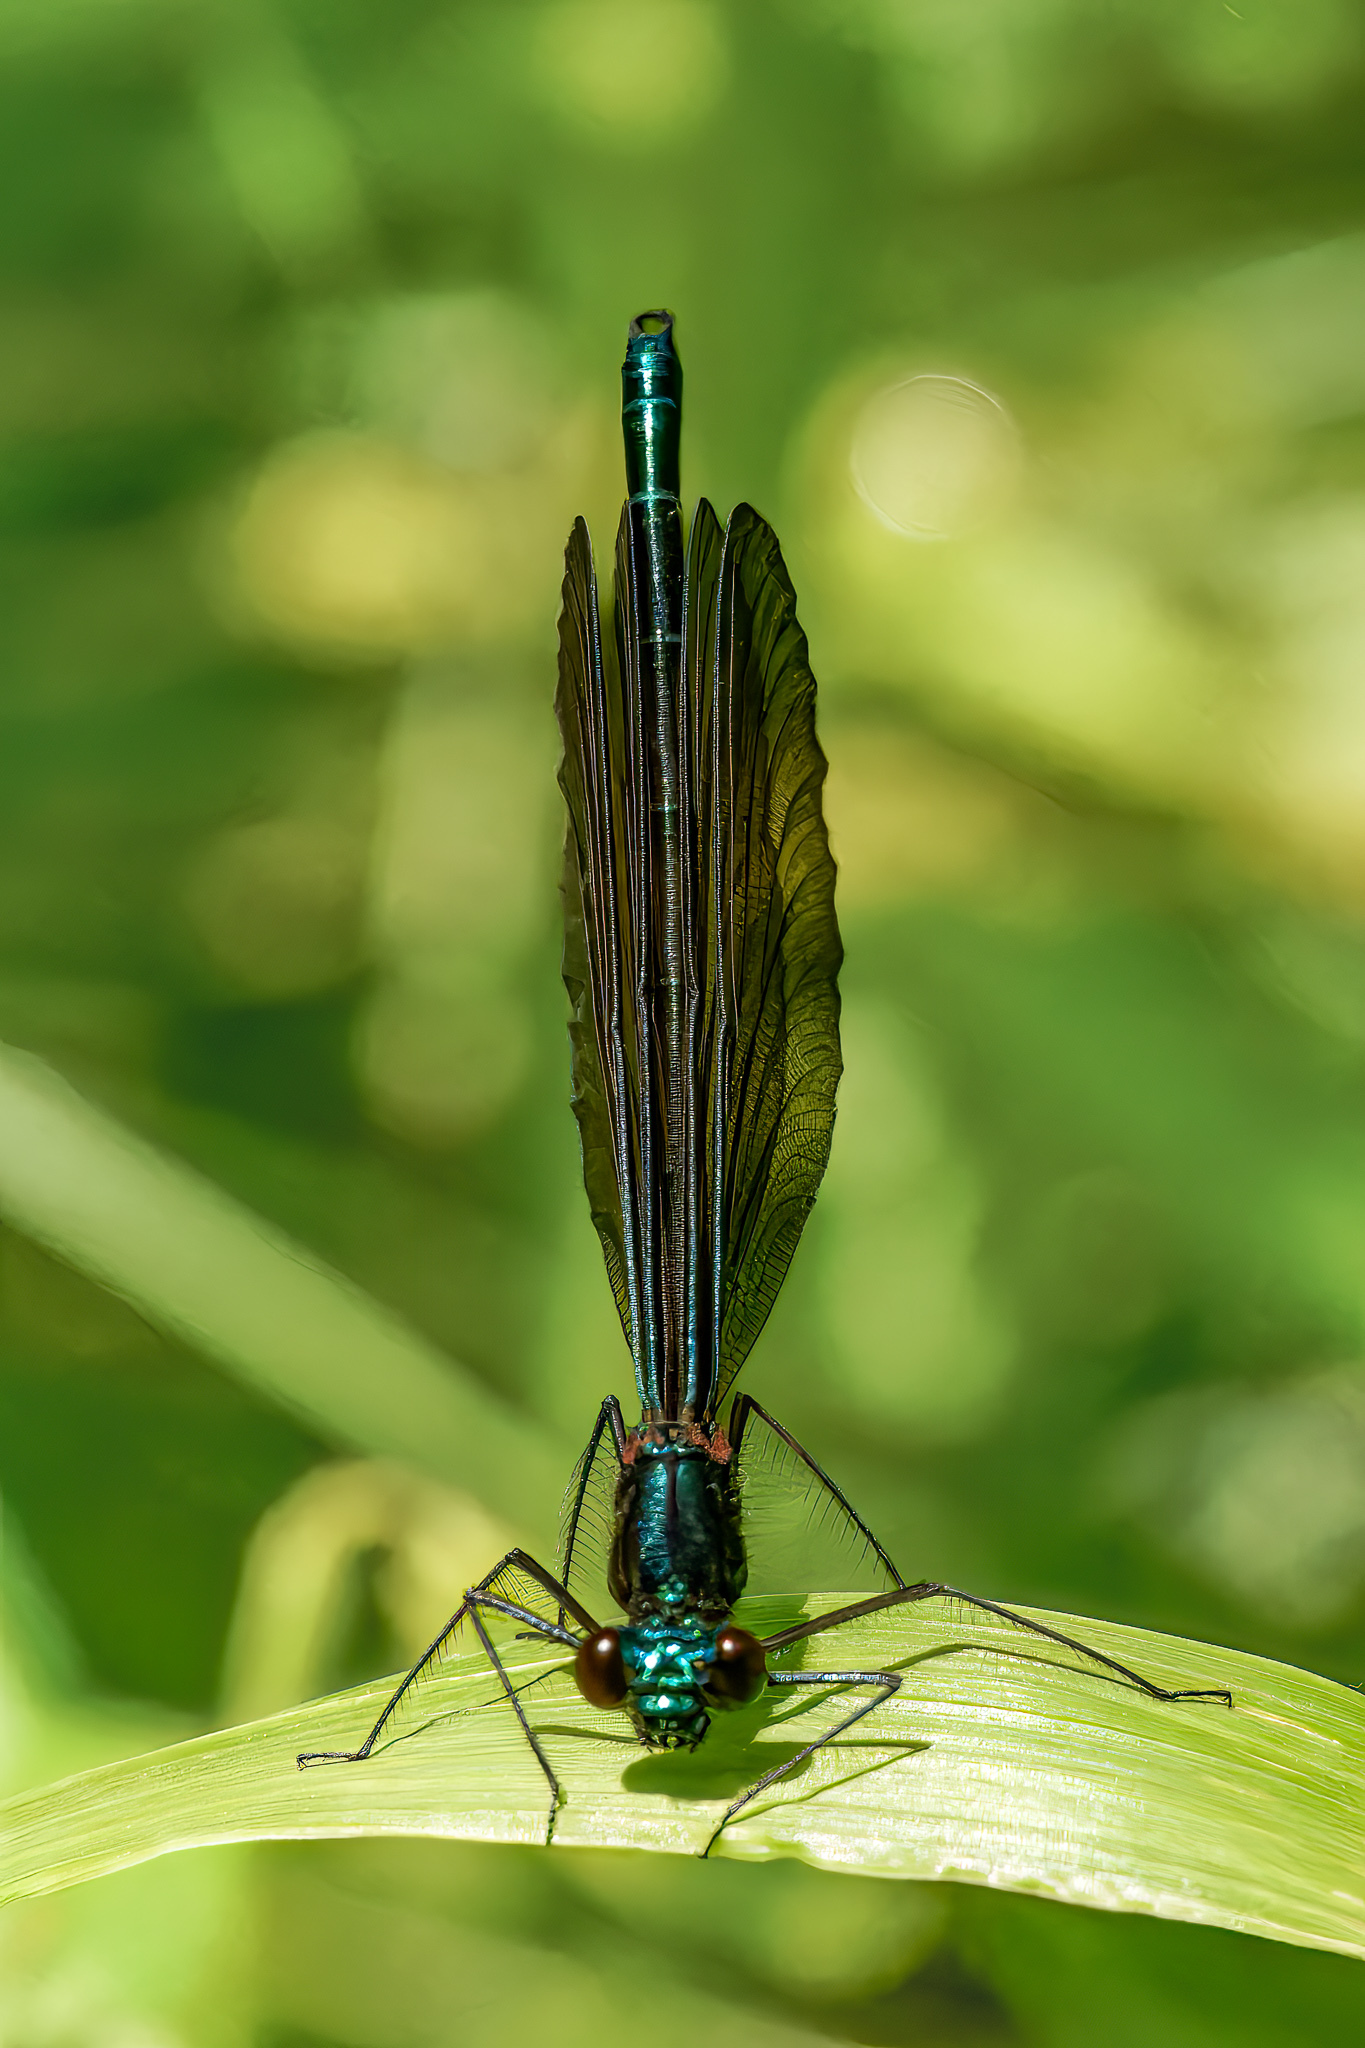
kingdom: Animalia
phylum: Arthropoda
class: Insecta
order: Odonata
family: Calopterygidae
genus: Calopteryx
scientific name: Calopteryx maculata
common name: Ebony jewelwing
